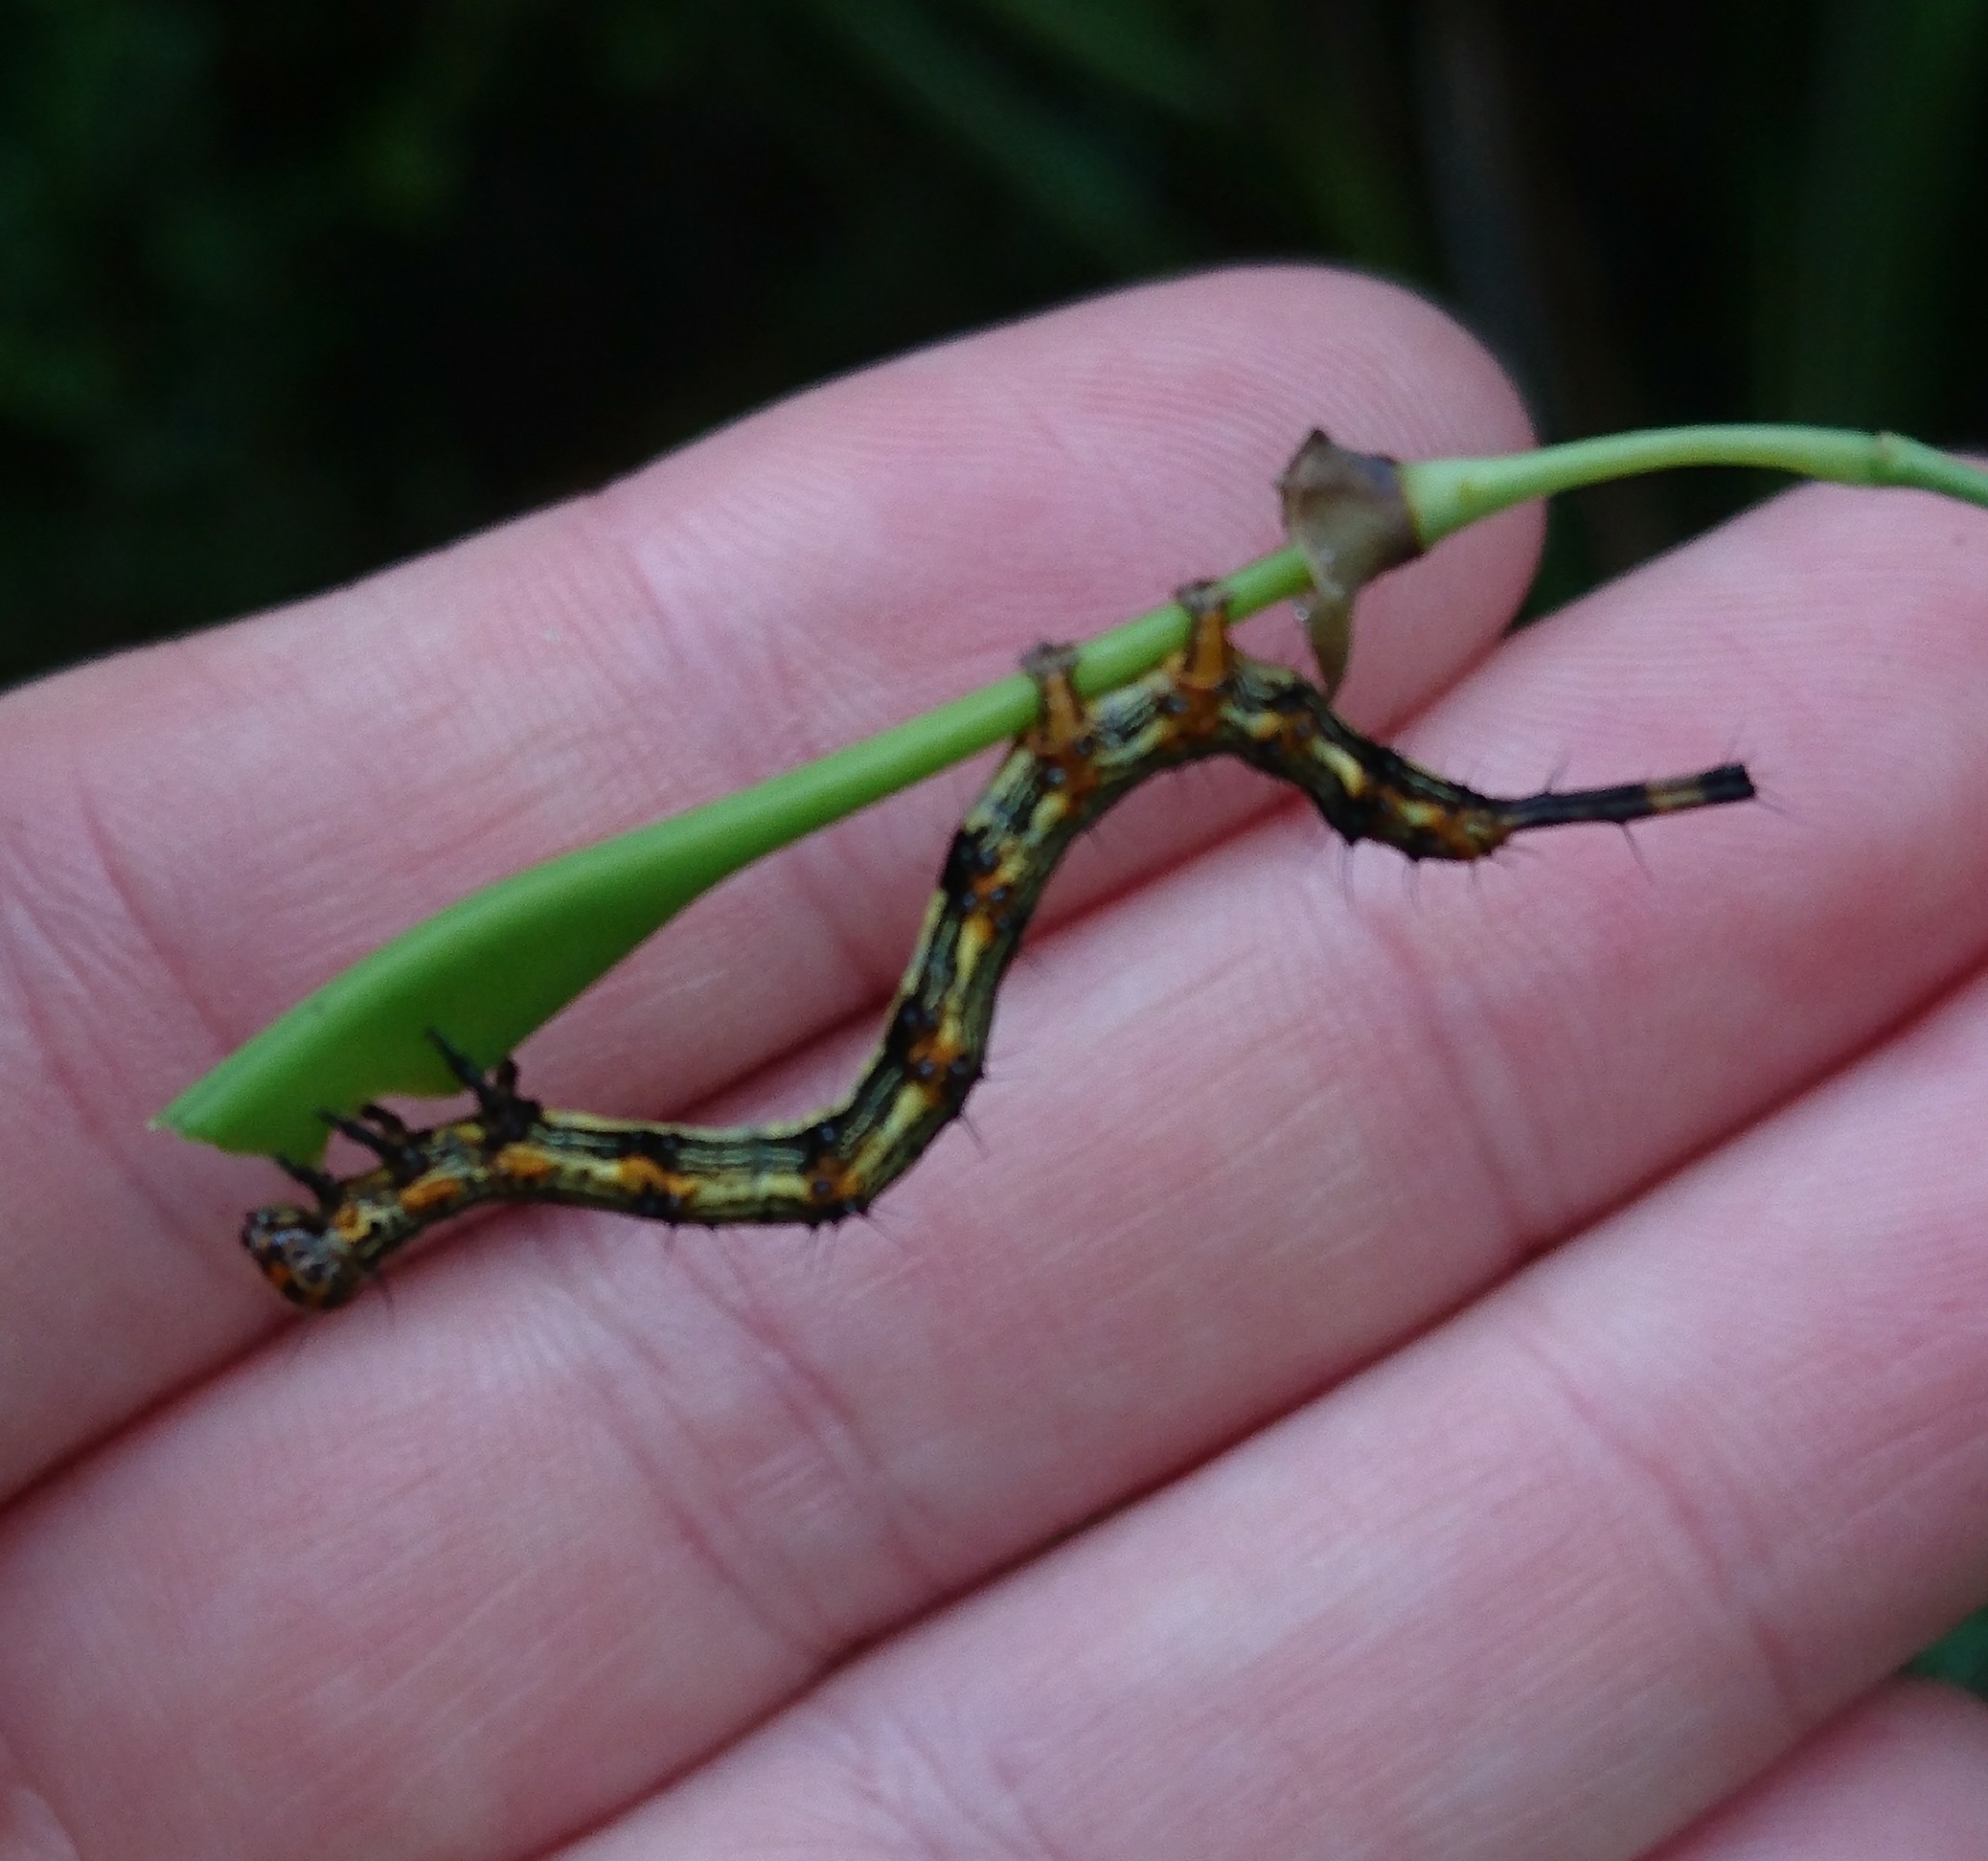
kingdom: Animalia
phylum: Arthropoda
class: Insecta
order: Lepidoptera
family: Erebidae
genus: Selenisa
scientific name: Selenisa sueroides
